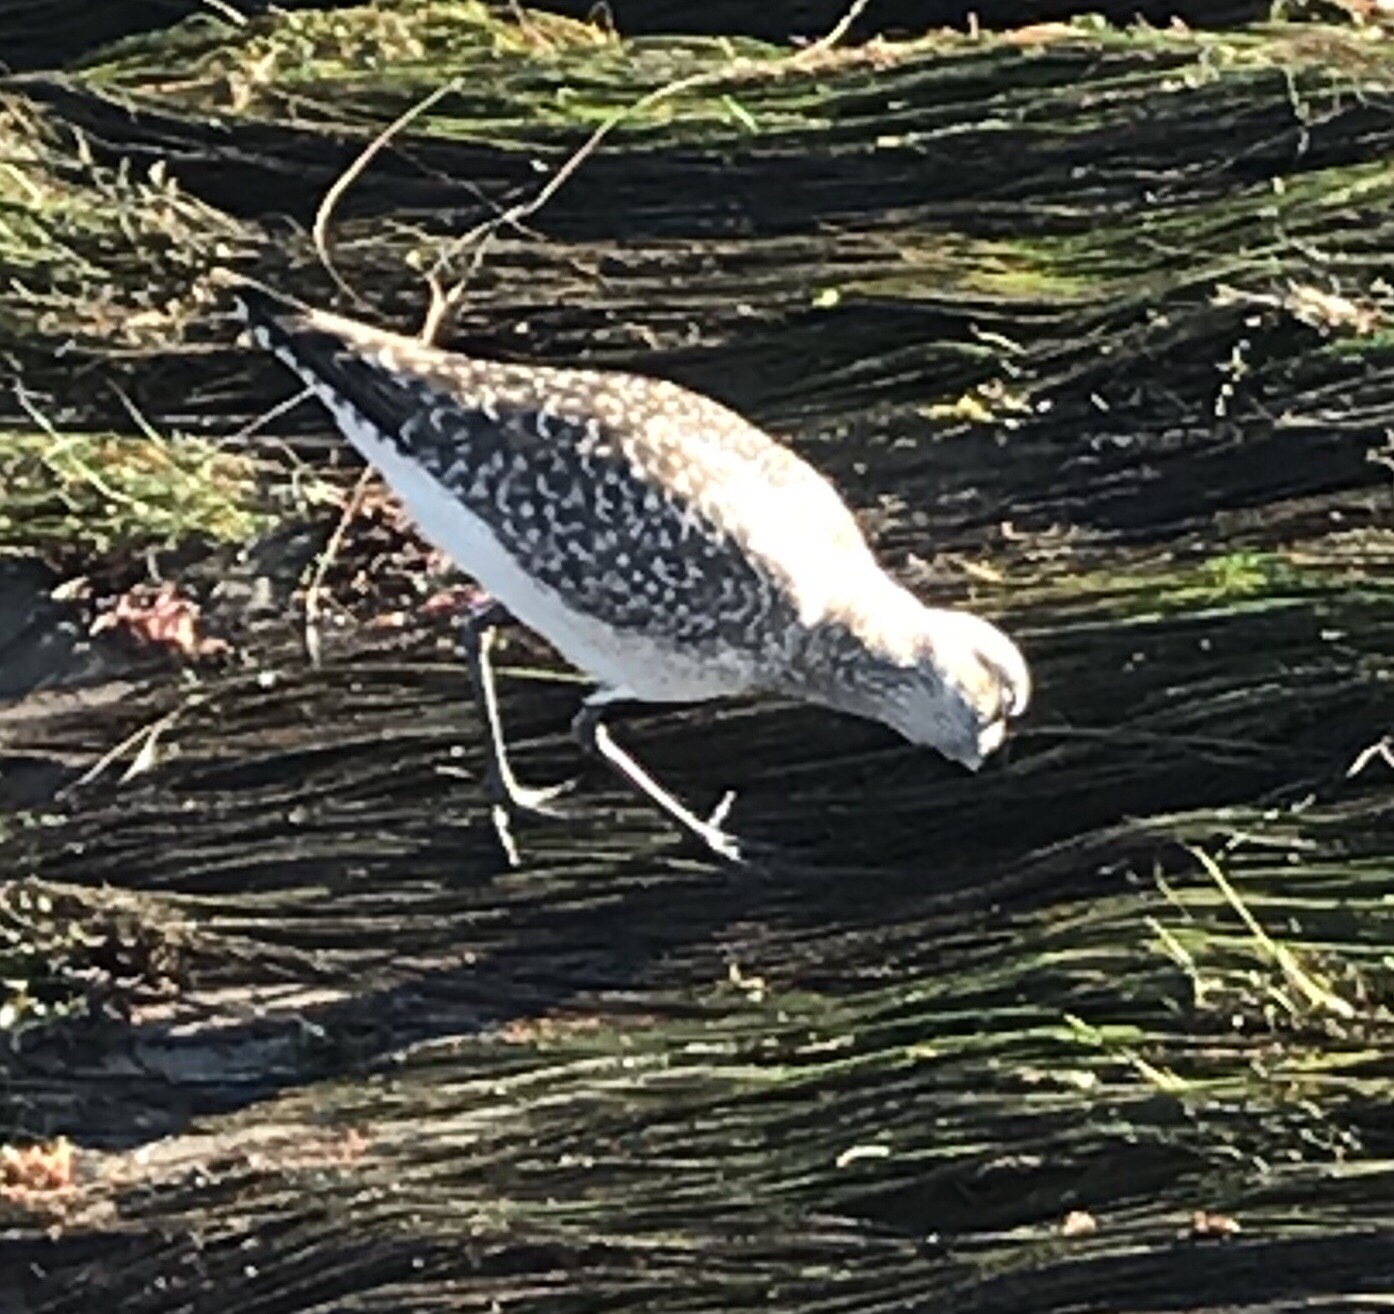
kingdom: Animalia
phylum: Chordata
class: Aves
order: Charadriiformes
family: Charadriidae
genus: Pluvialis
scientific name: Pluvialis squatarola
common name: Grey plover
